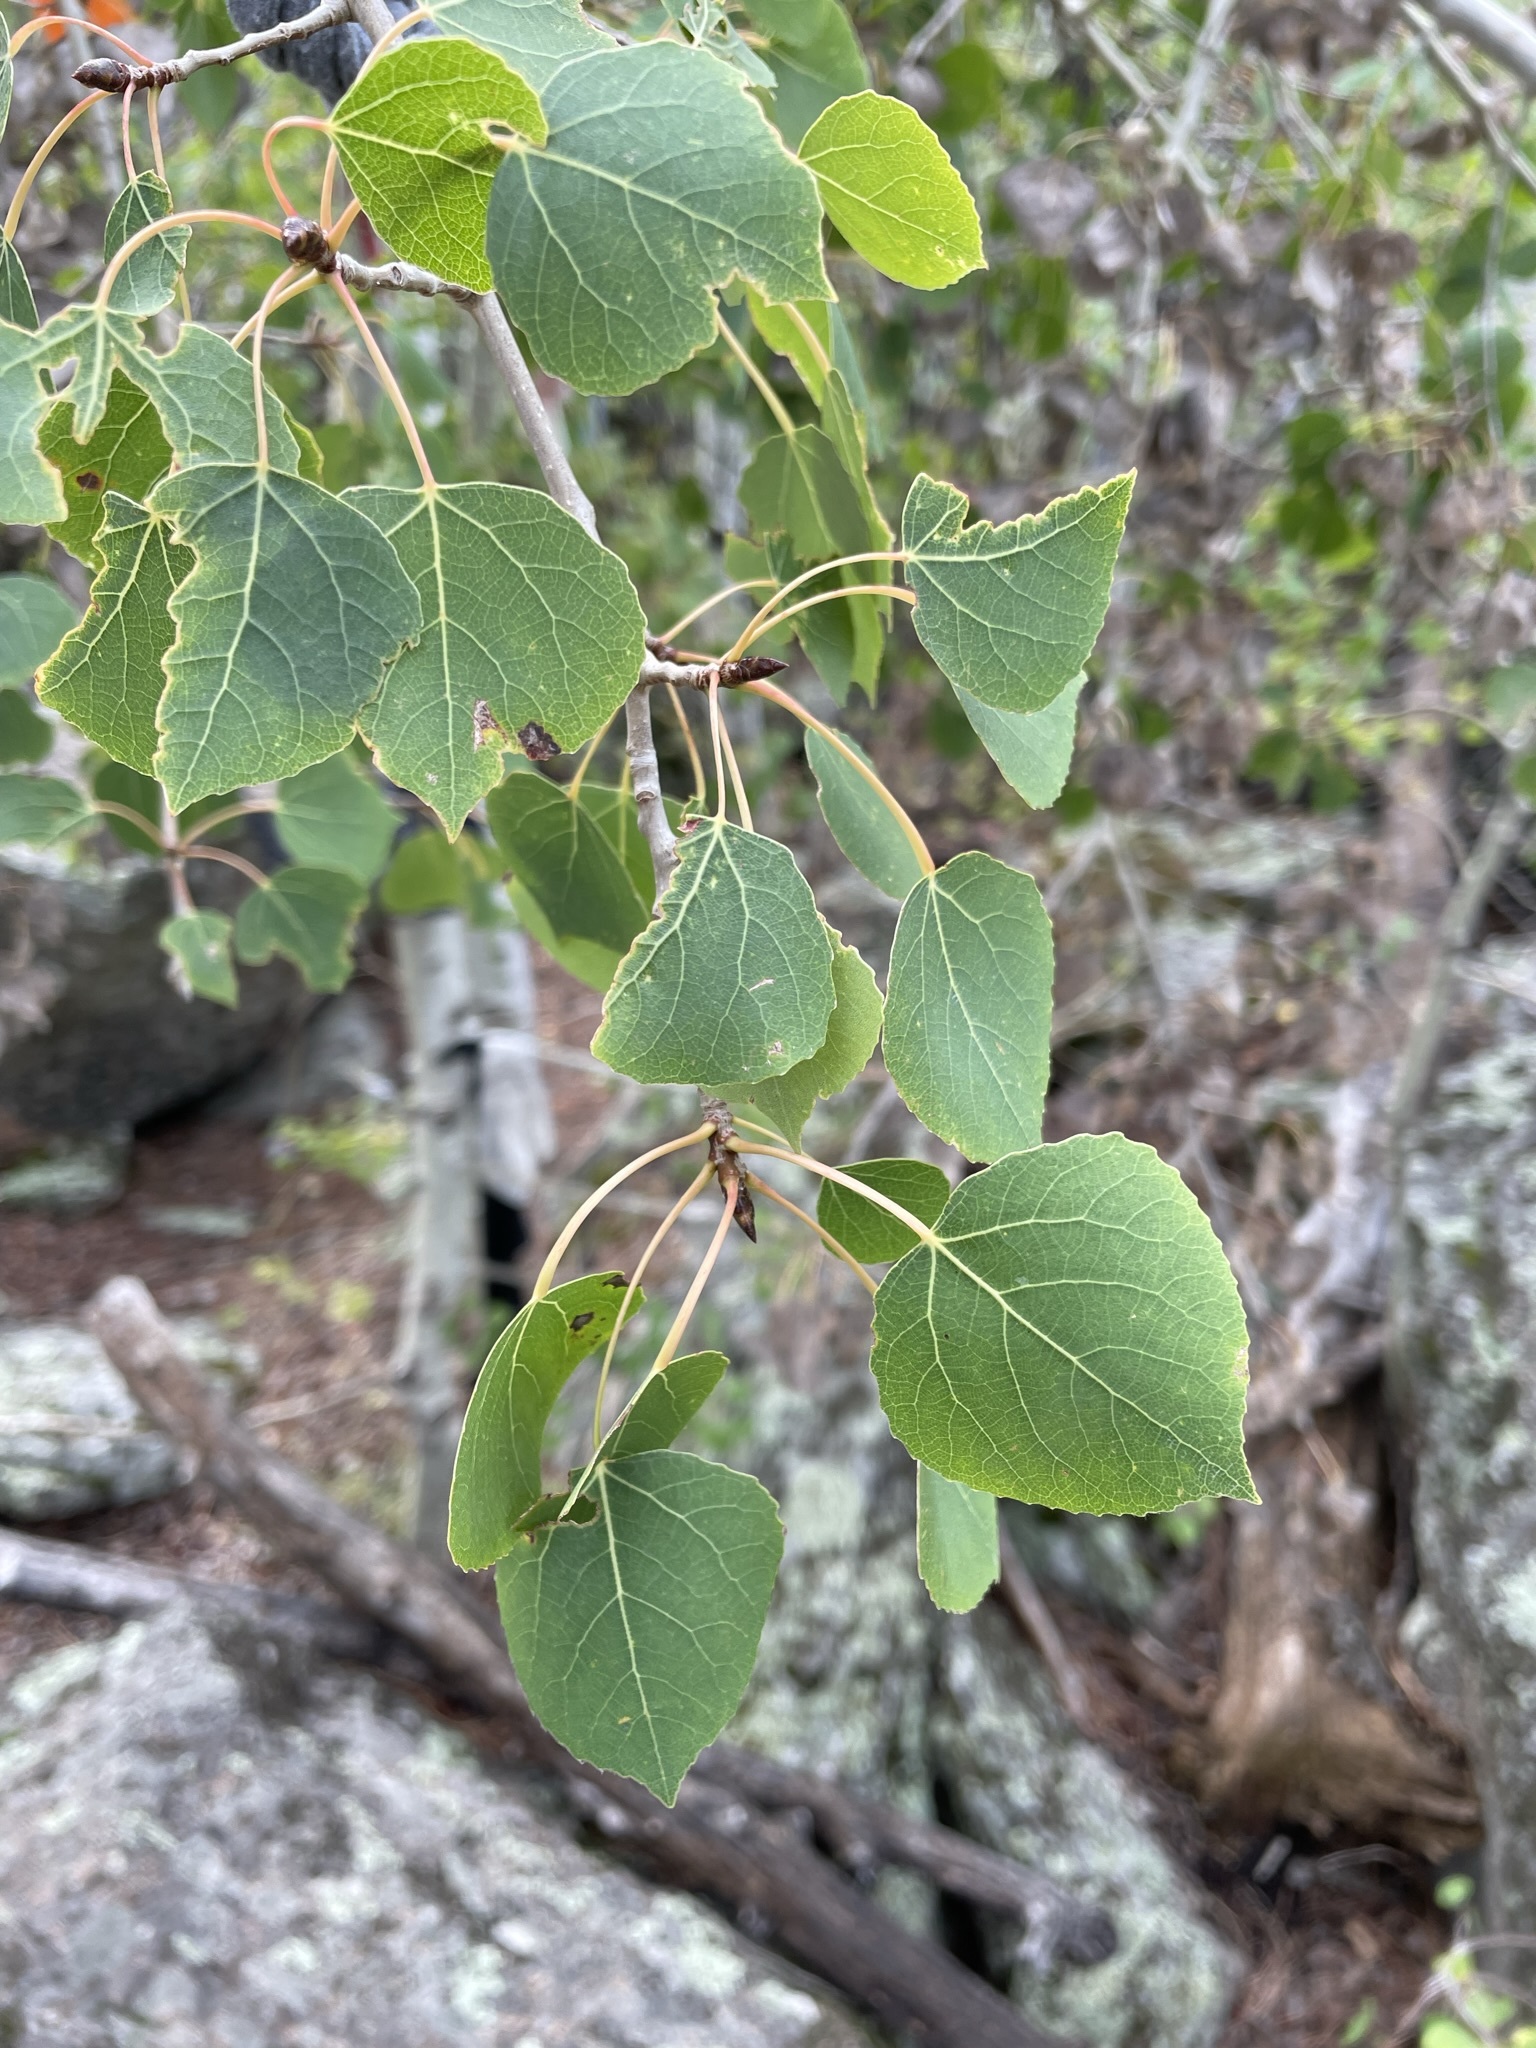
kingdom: Plantae
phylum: Tracheophyta
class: Magnoliopsida
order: Malpighiales
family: Salicaceae
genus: Populus
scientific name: Populus tremuloides
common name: Quaking aspen
